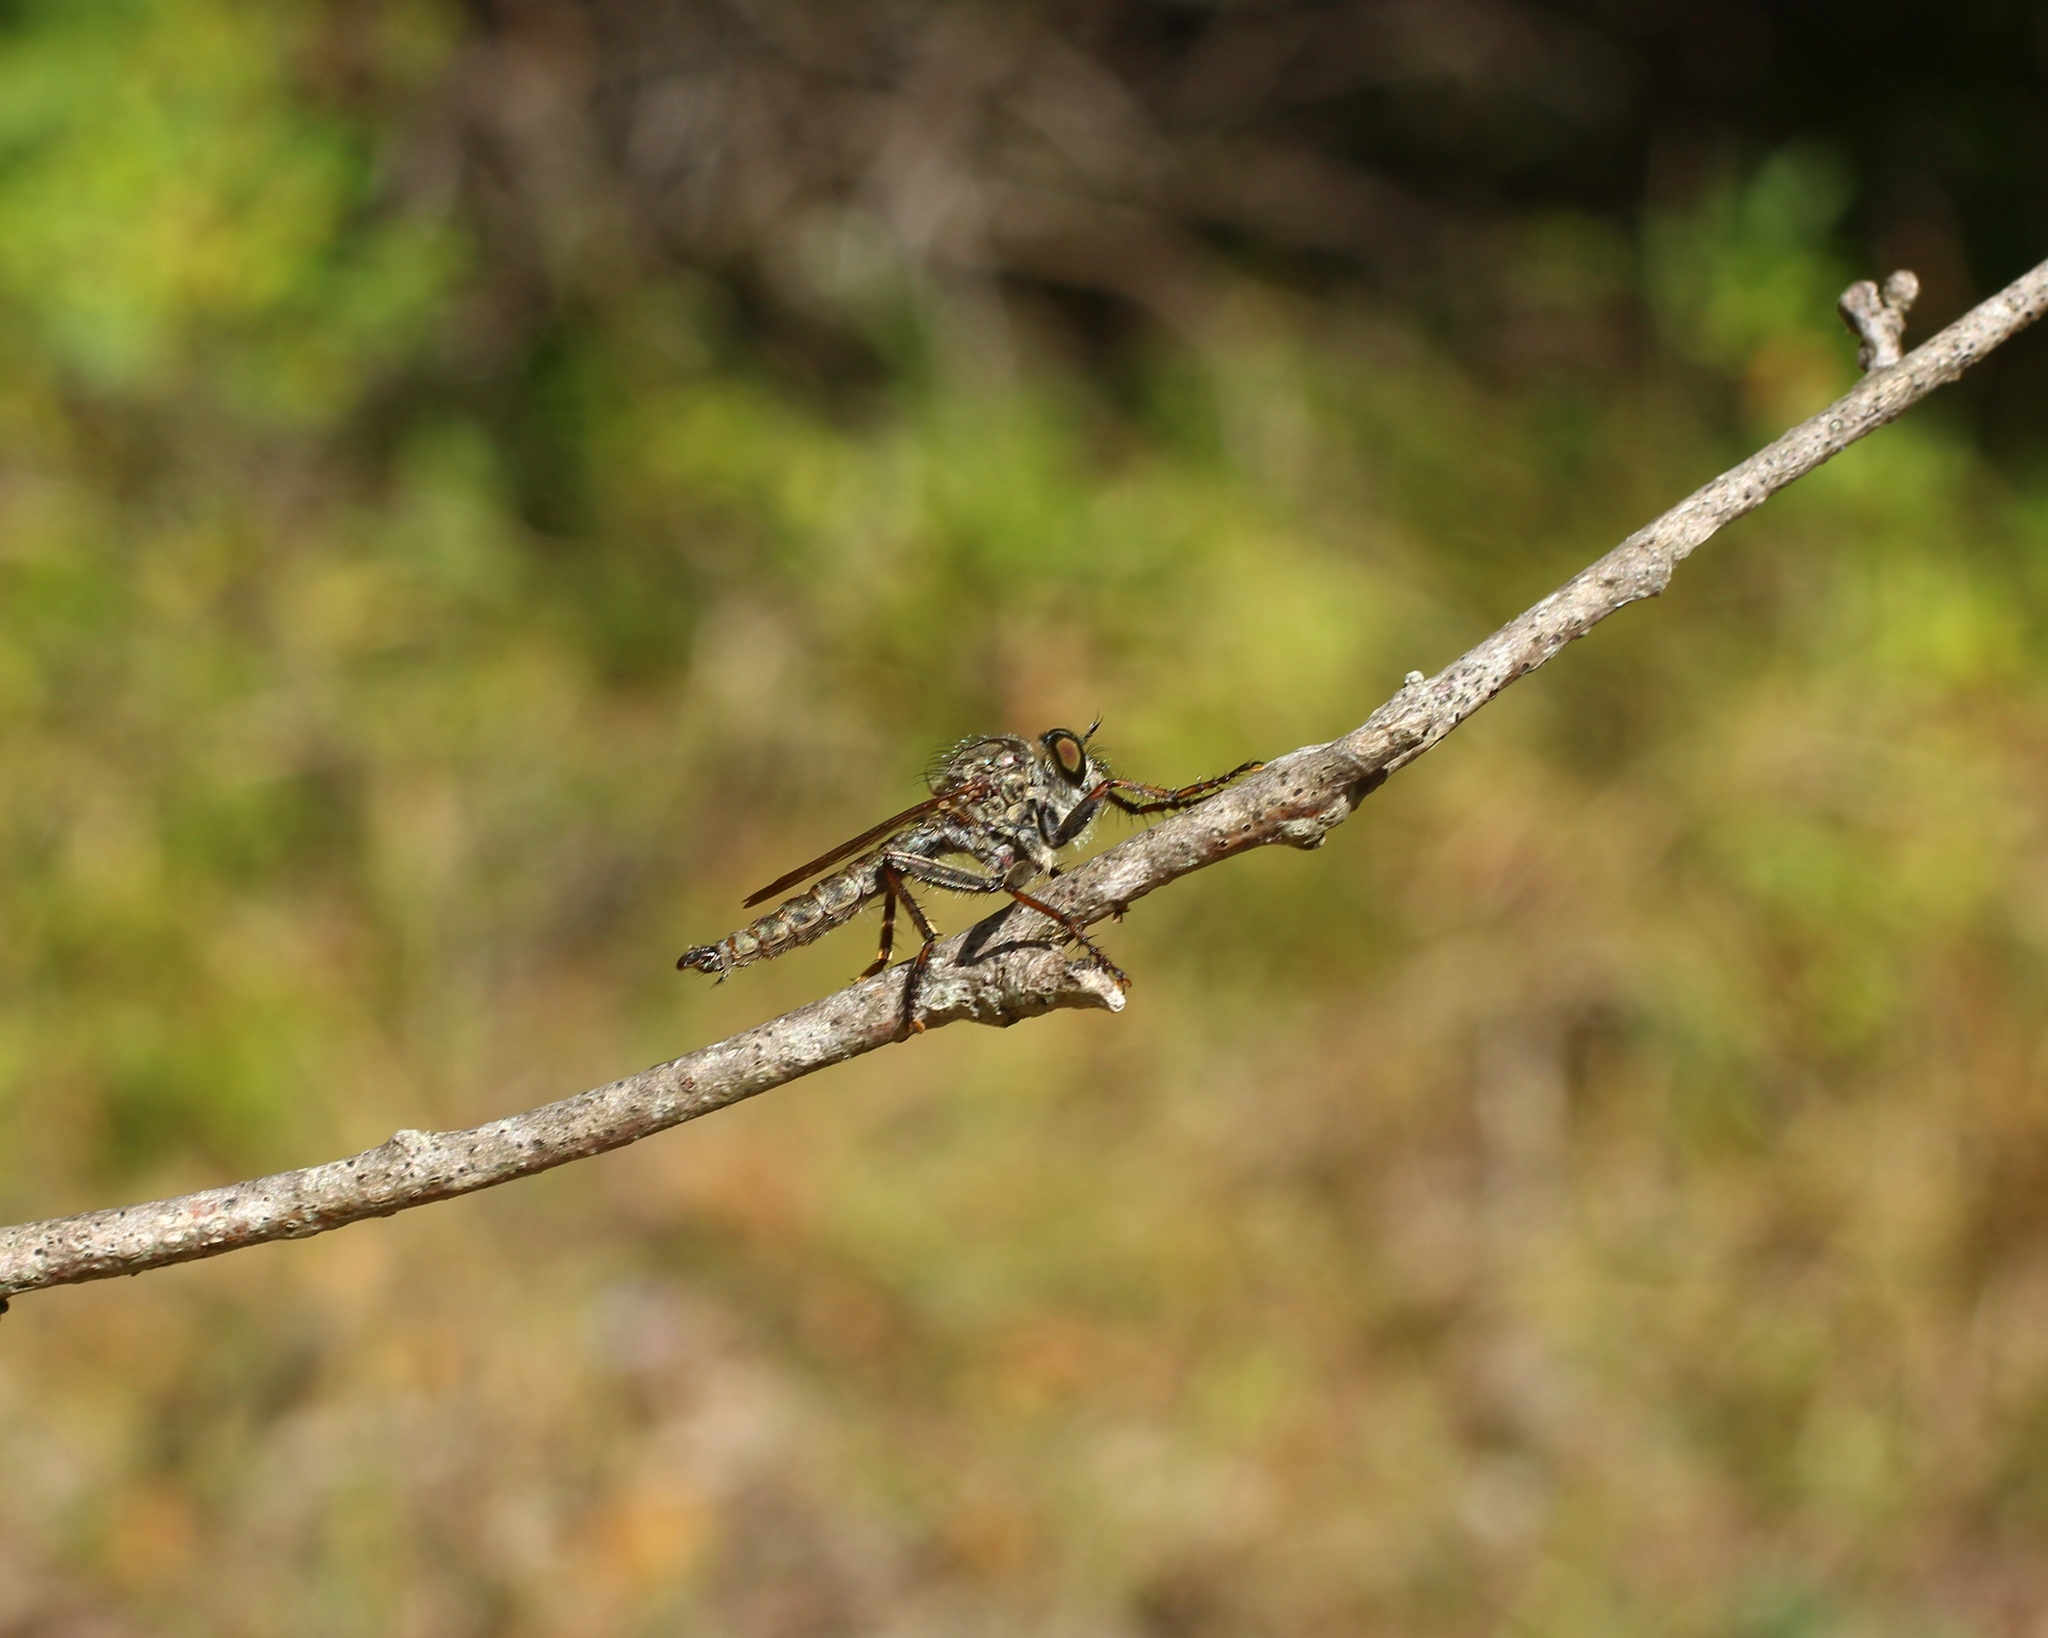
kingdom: Animalia
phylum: Arthropoda
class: Insecta
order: Diptera
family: Asilidae
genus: Machimus
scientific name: Machimus atricapillus
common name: Kite-tailed robberfly
